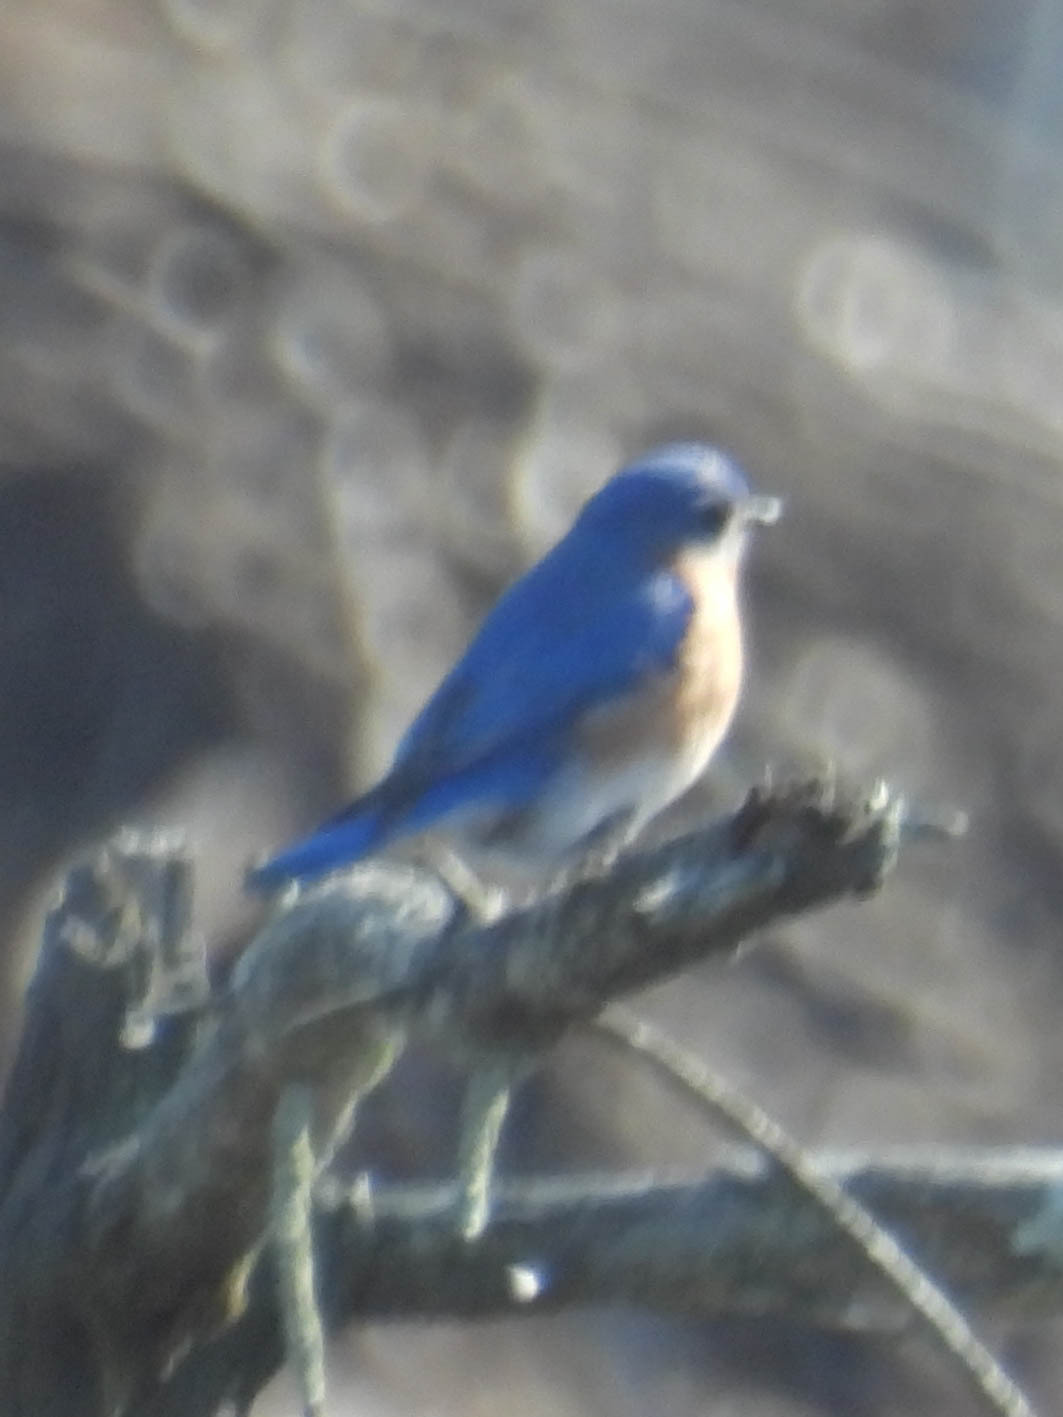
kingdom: Animalia
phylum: Chordata
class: Aves
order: Passeriformes
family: Turdidae
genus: Sialia
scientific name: Sialia sialis
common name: Eastern bluebird
